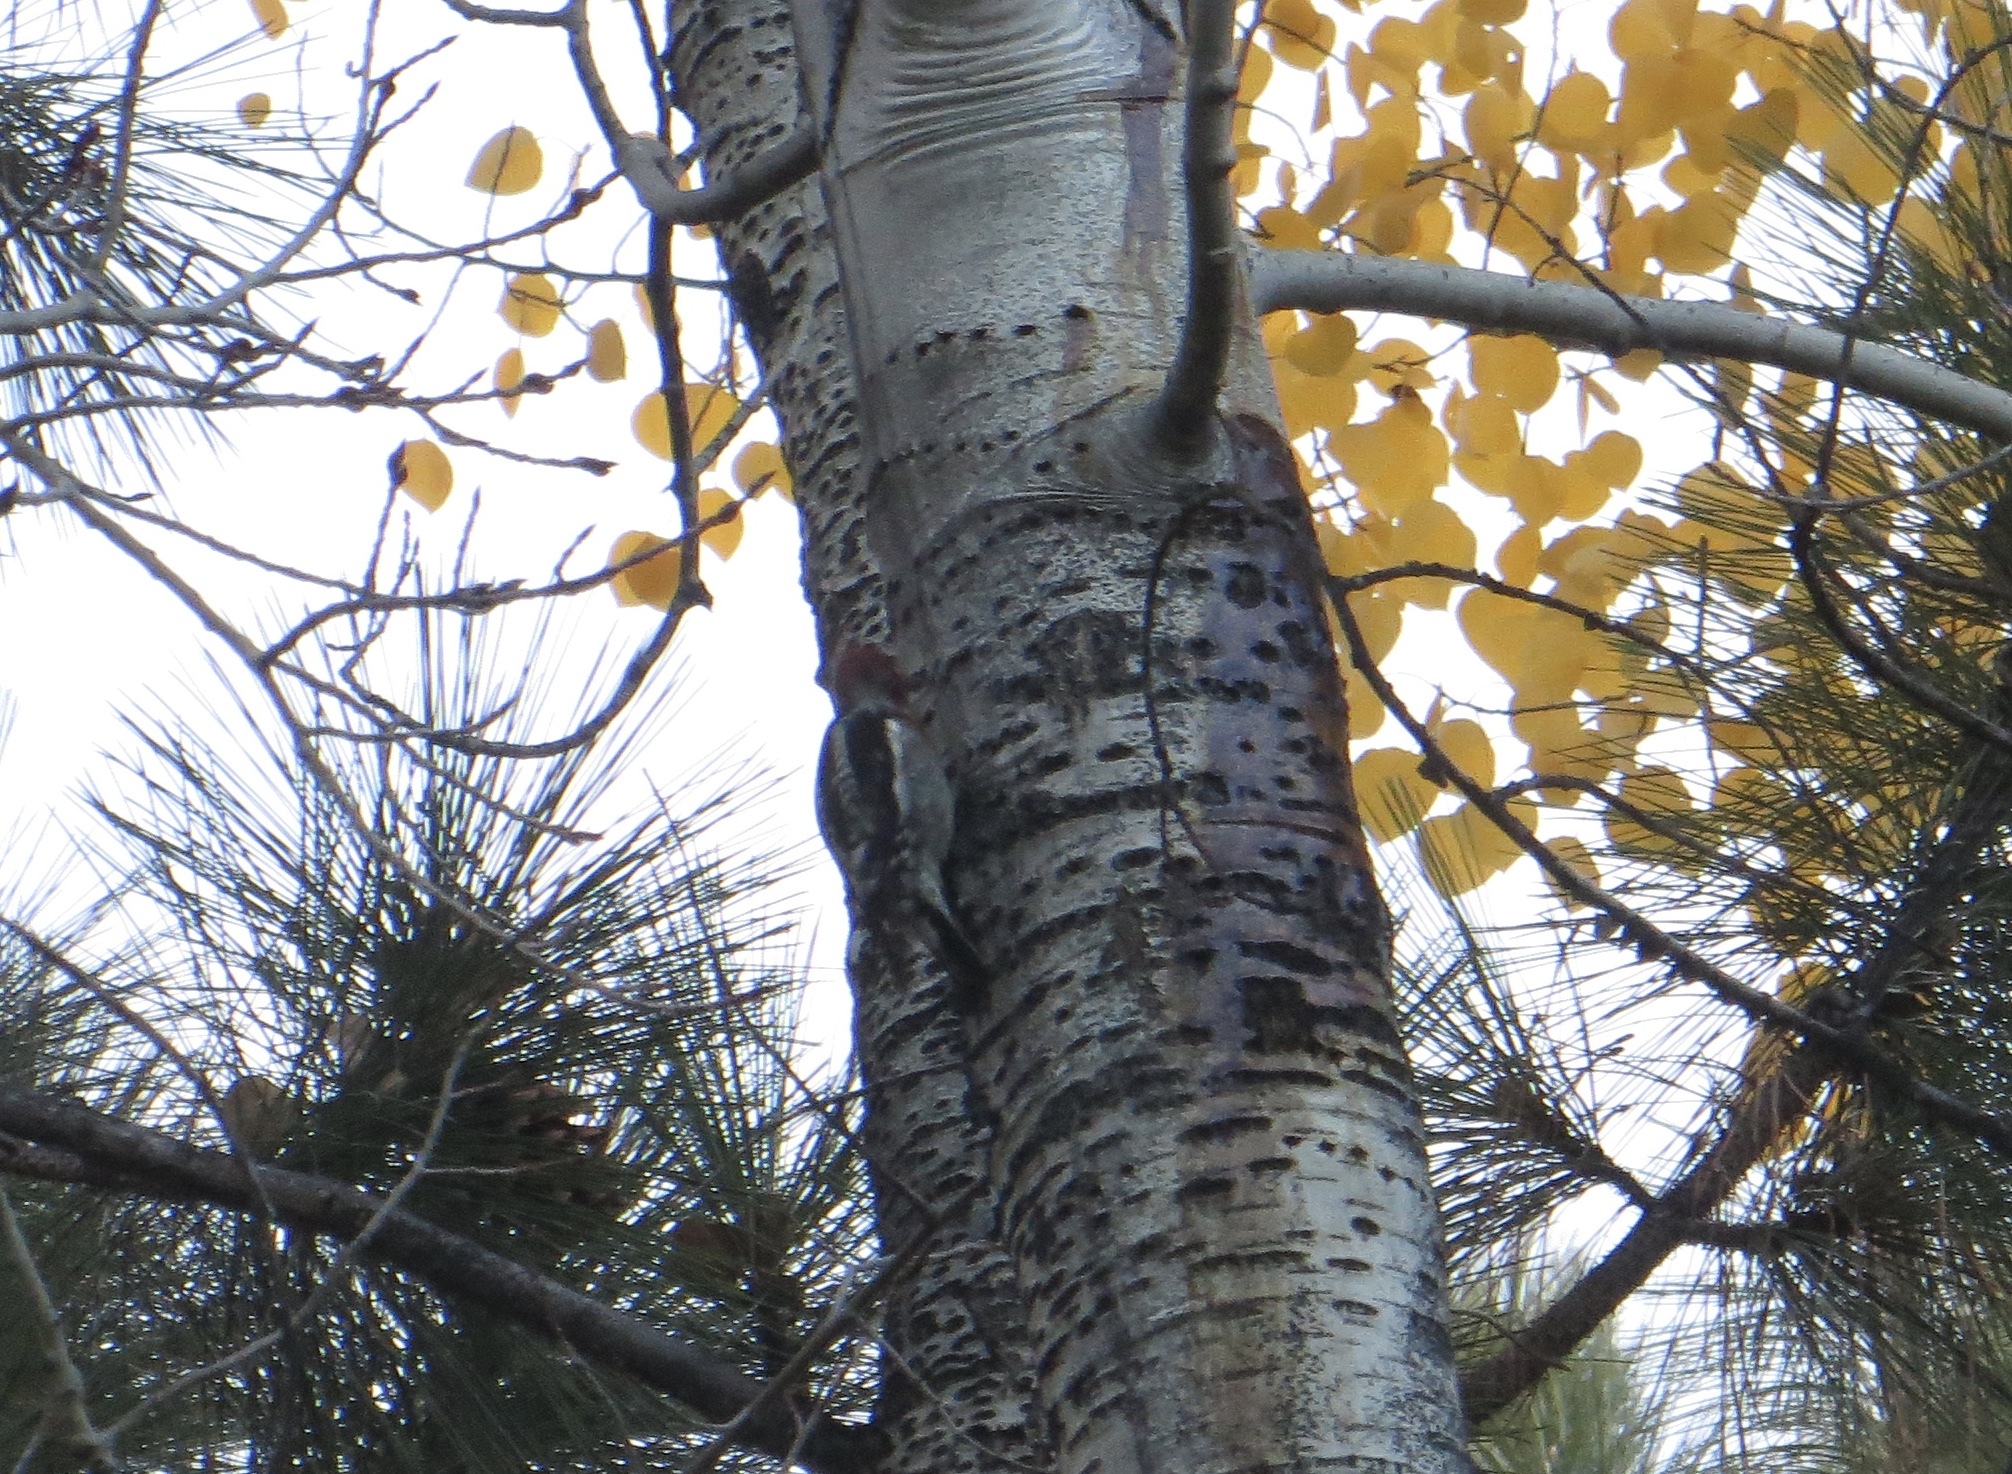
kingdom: Animalia
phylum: Chordata
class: Aves
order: Piciformes
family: Picidae
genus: Sphyrapicus
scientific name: Sphyrapicus ruber
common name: Red-breasted sapsucker
